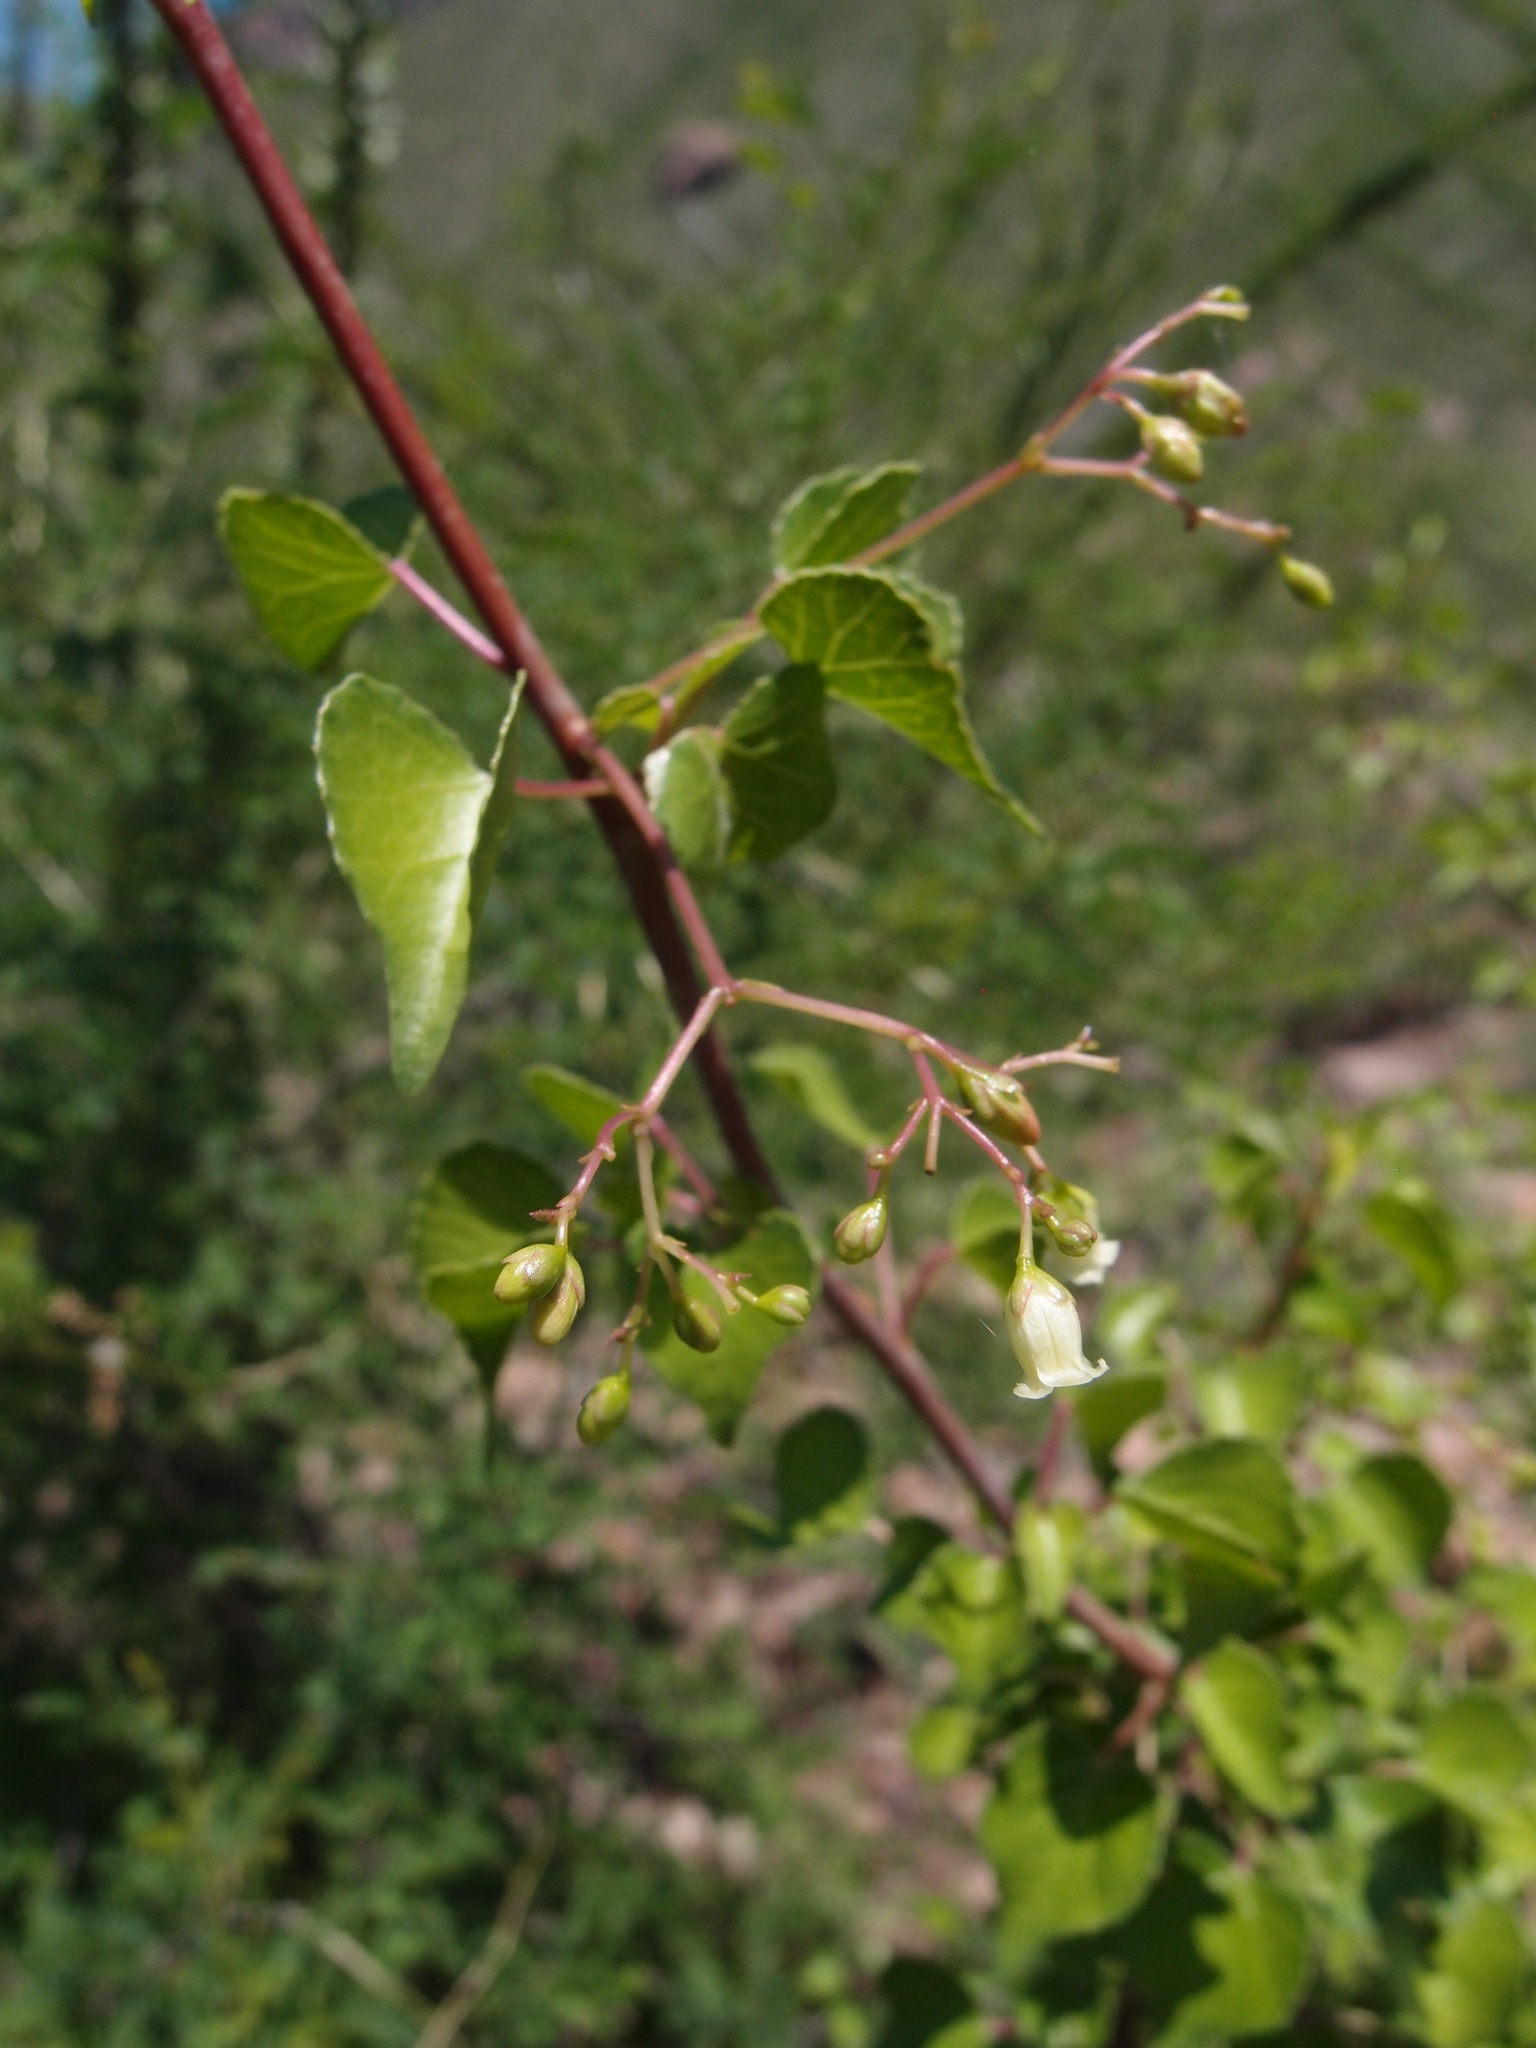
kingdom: Plantae
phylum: Tracheophyta
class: Magnoliopsida
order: Malpighiales
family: Euphorbiaceae
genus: Jatropha
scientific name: Jatropha cardiophylla
